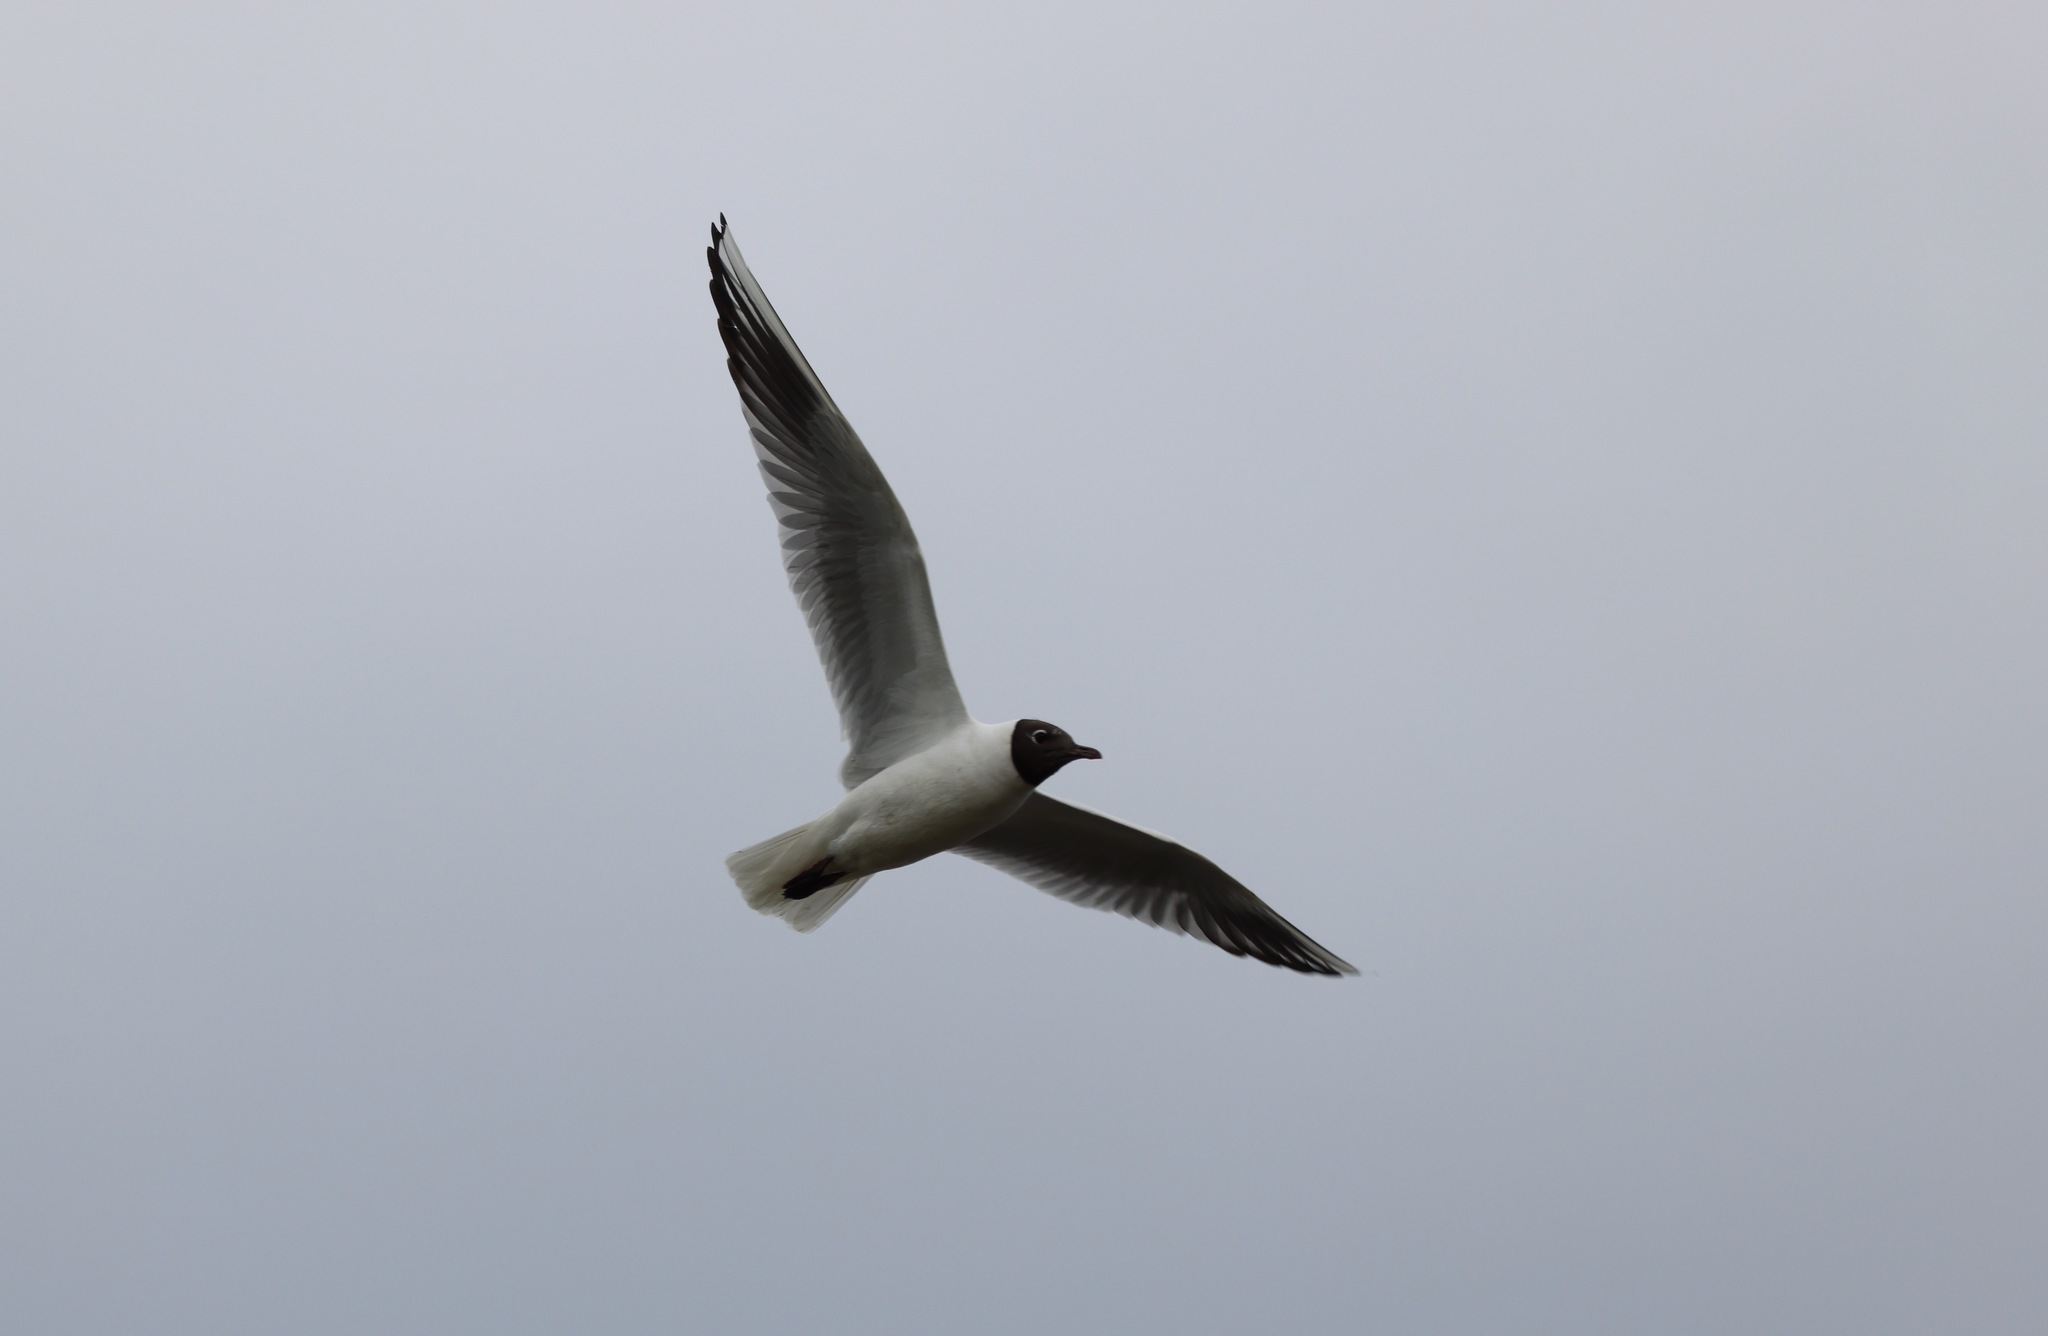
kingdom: Animalia
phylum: Chordata
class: Aves
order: Charadriiformes
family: Laridae
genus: Chroicocephalus
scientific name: Chroicocephalus ridibundus
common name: Black-headed gull
